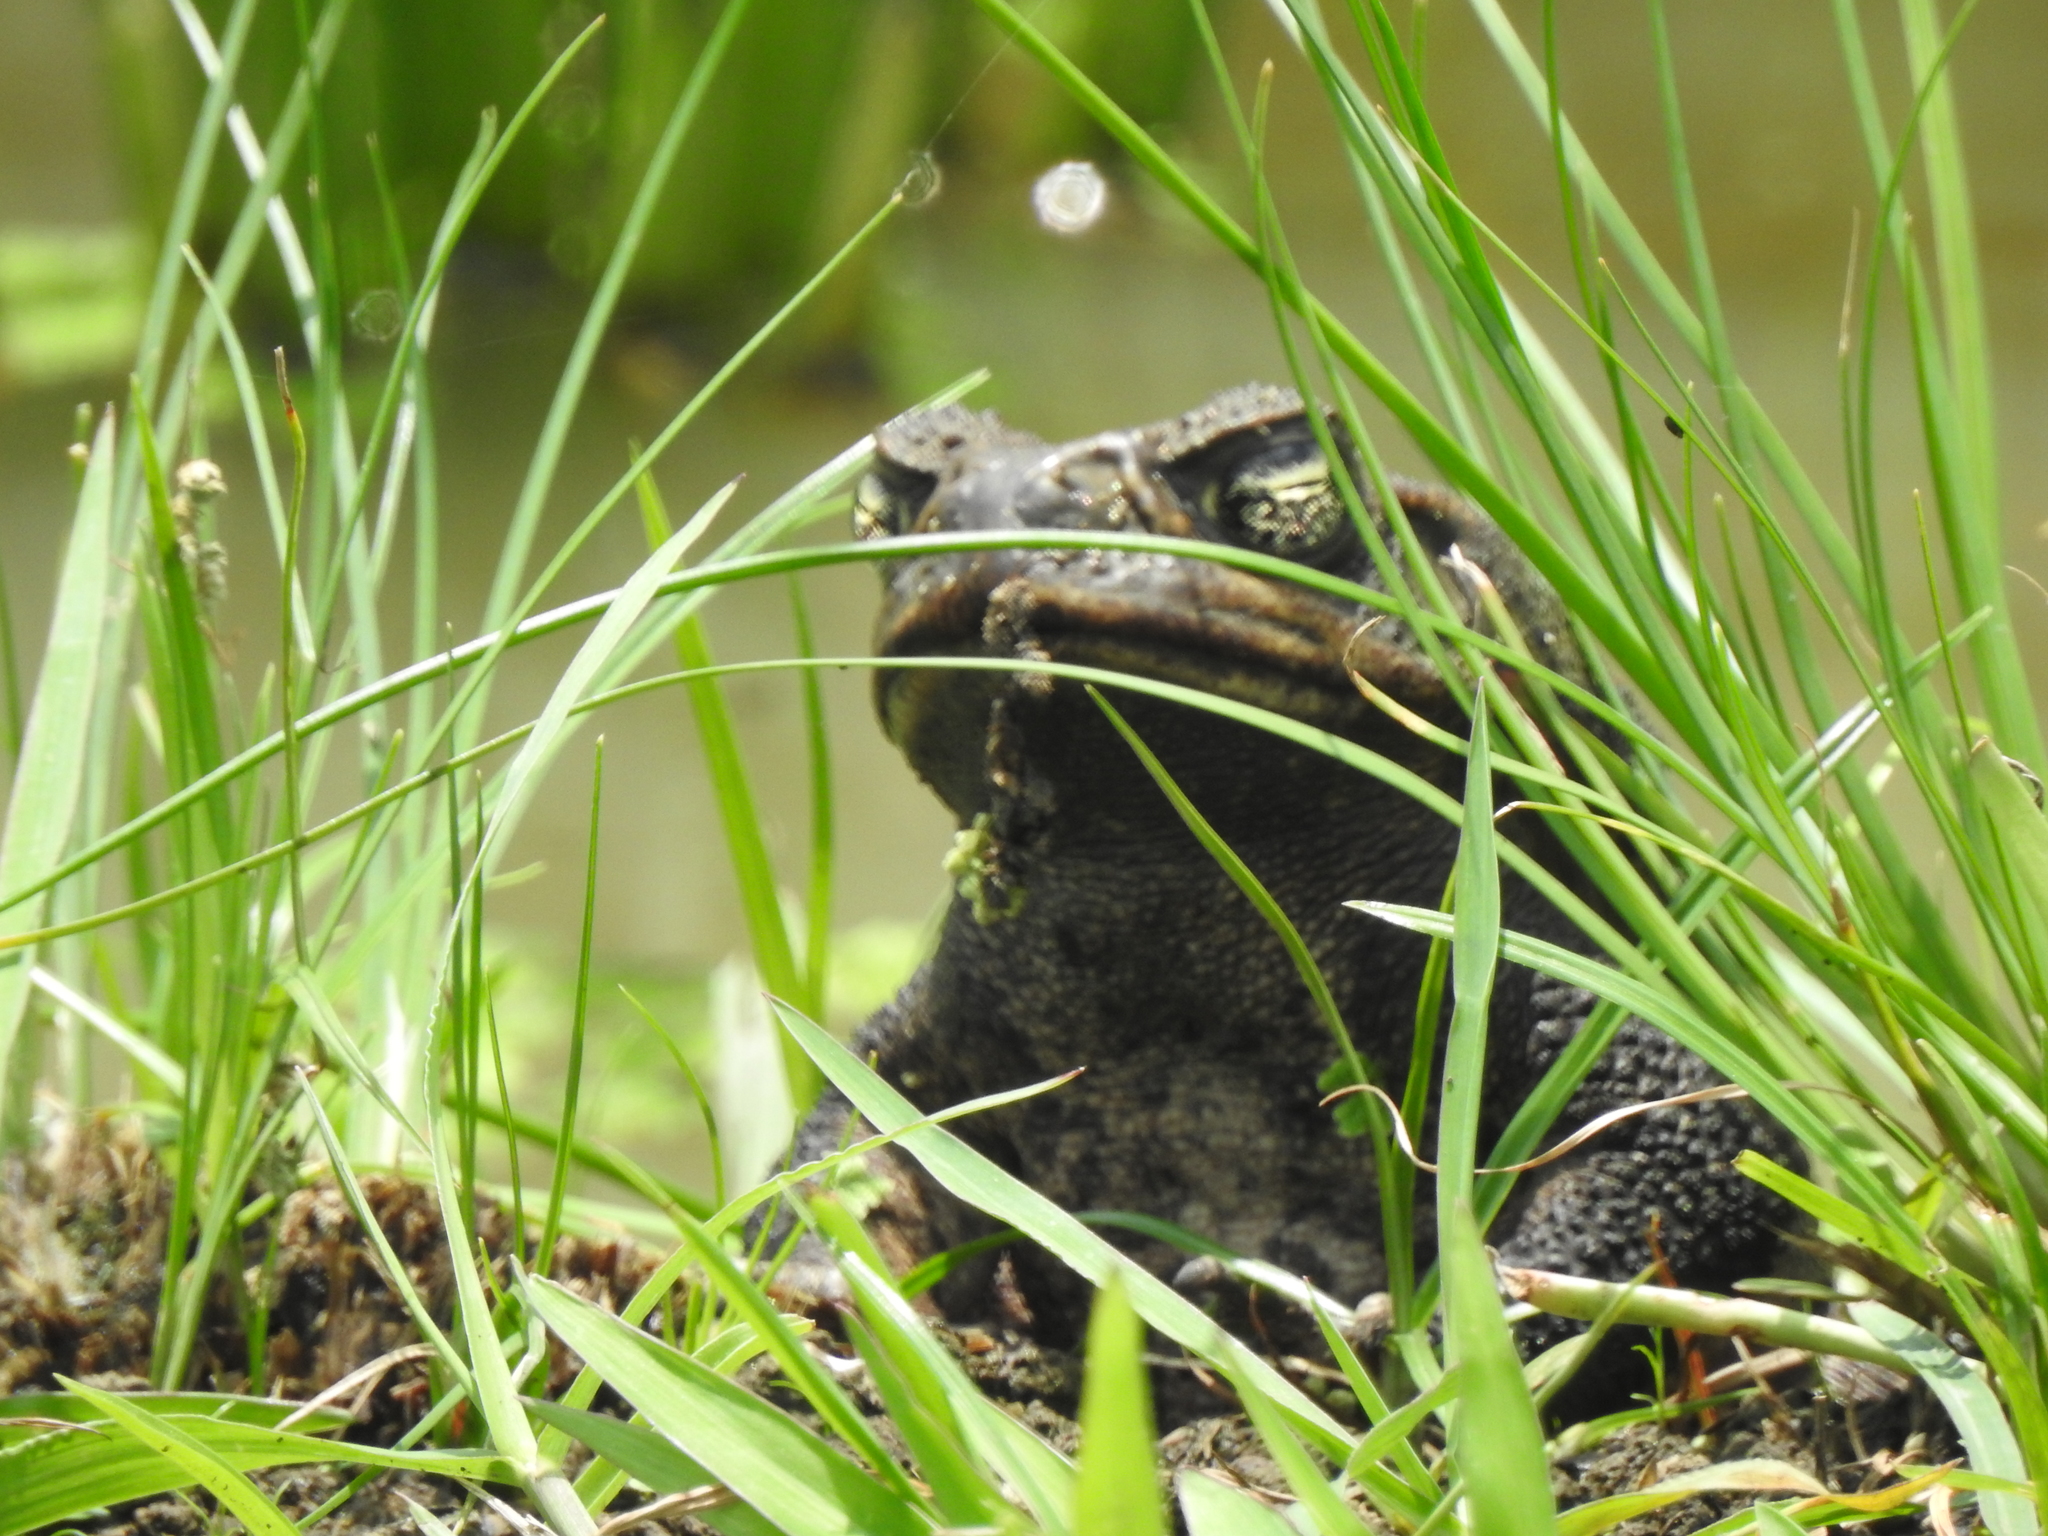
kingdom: Animalia
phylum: Chordata
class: Amphibia
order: Anura
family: Bufonidae
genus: Rhinella
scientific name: Rhinella marina
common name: Cane toad
